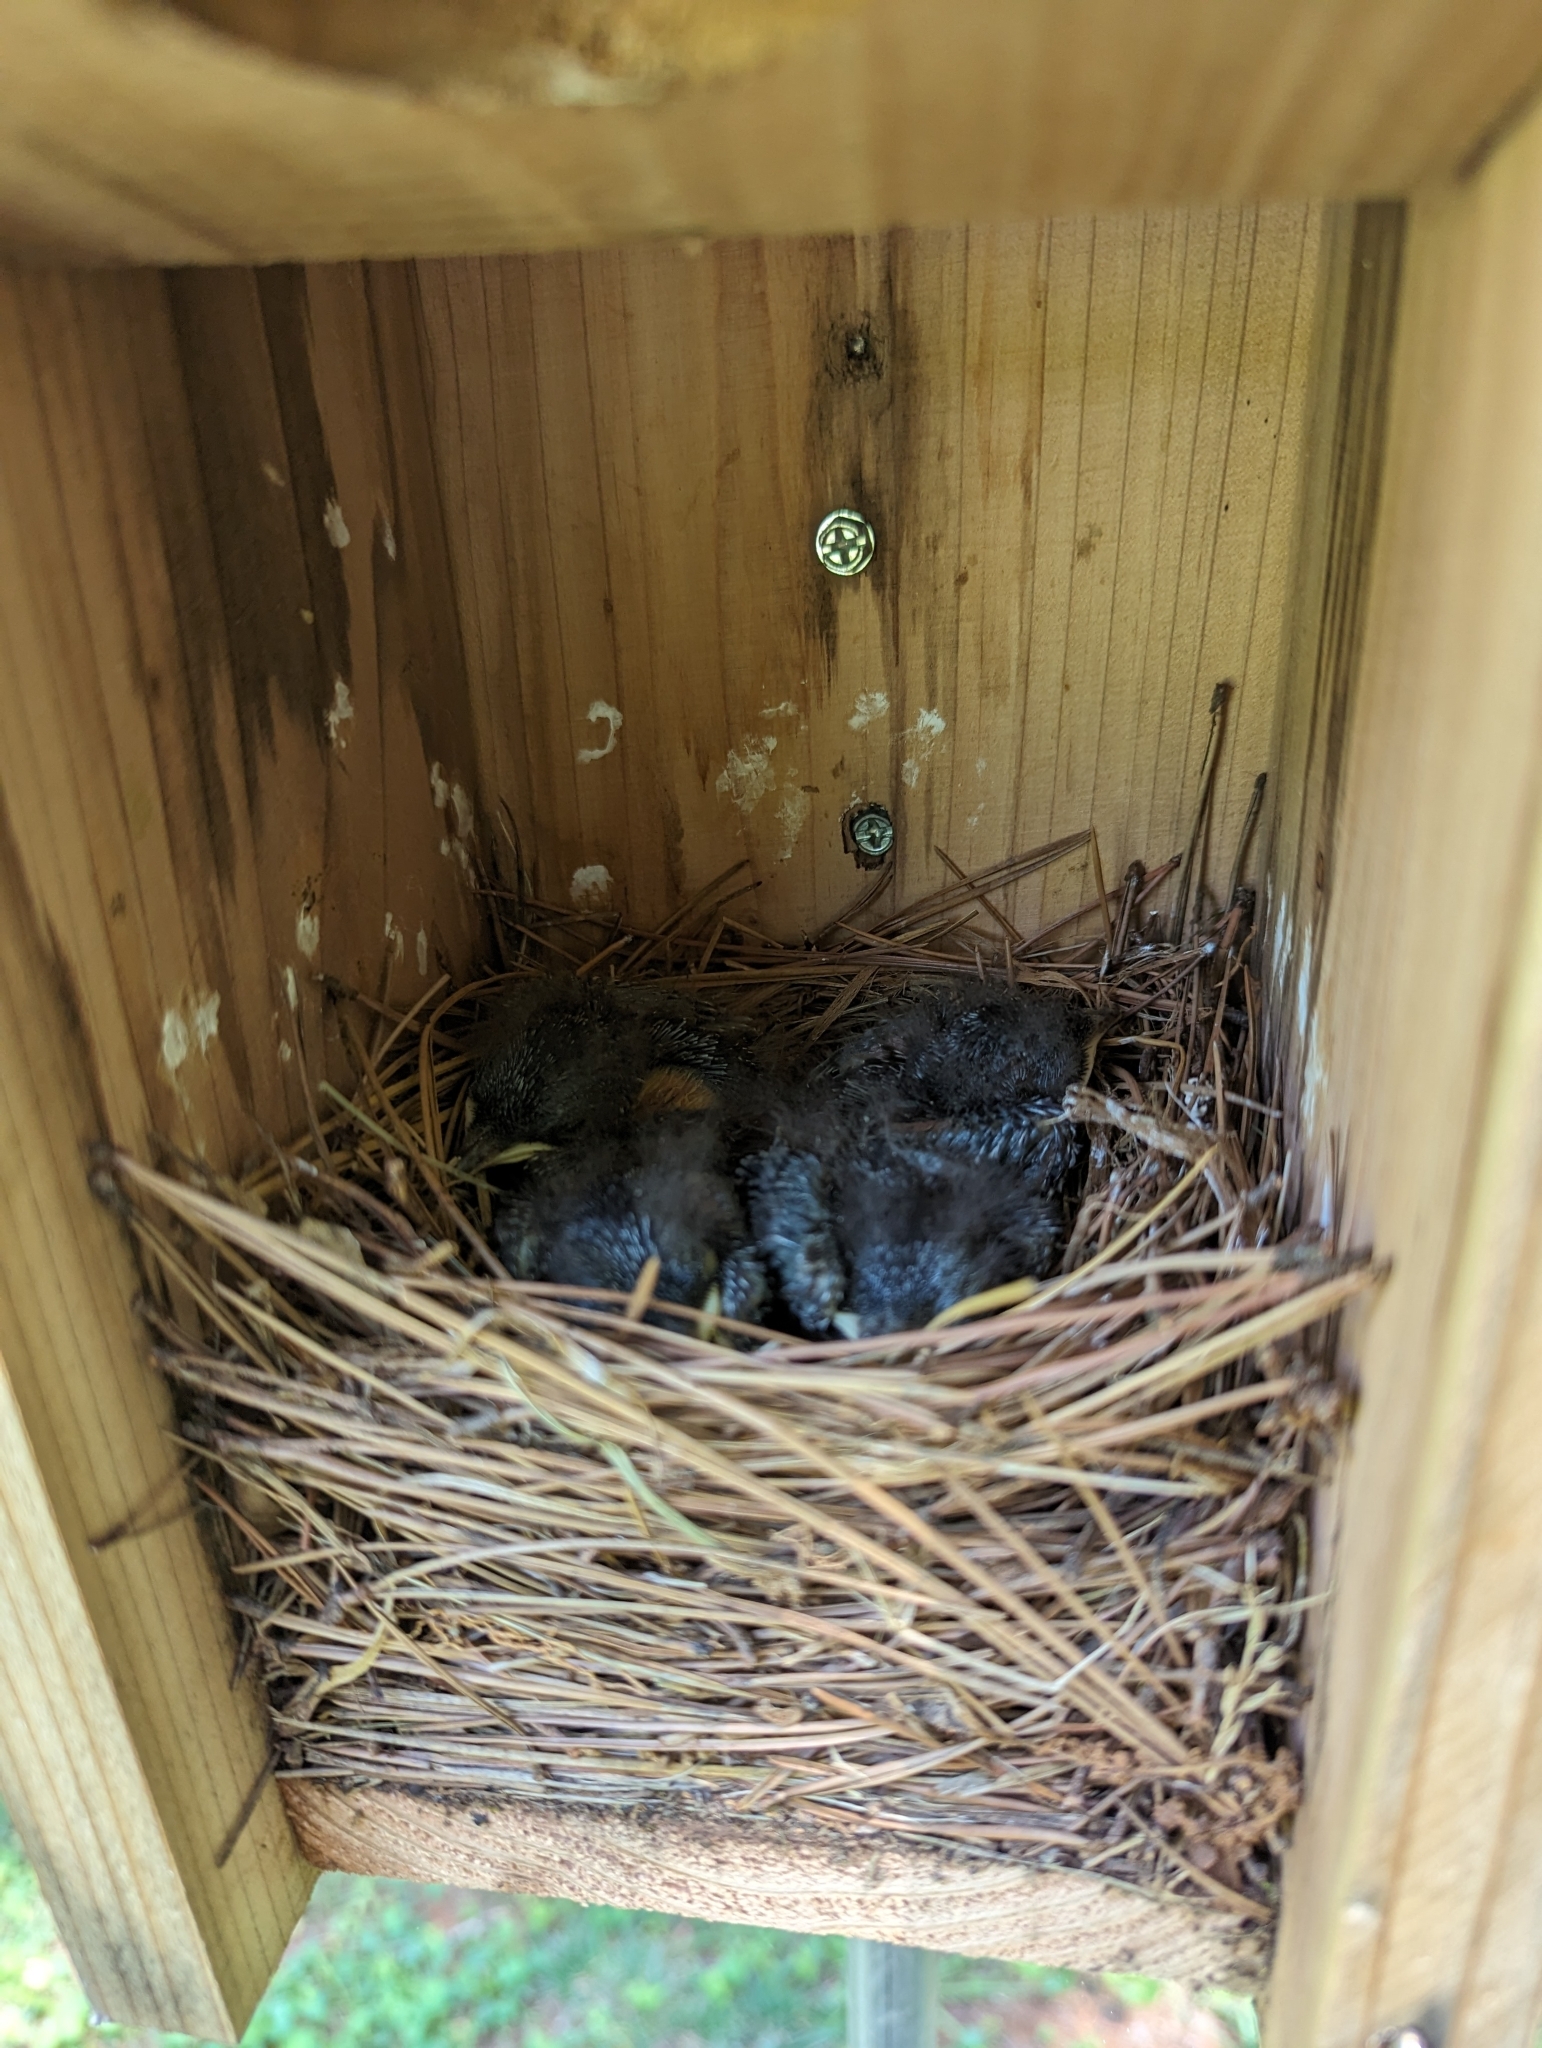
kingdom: Animalia
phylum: Chordata
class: Aves
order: Passeriformes
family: Turdidae
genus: Sialia
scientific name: Sialia sialis
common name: Eastern bluebird
